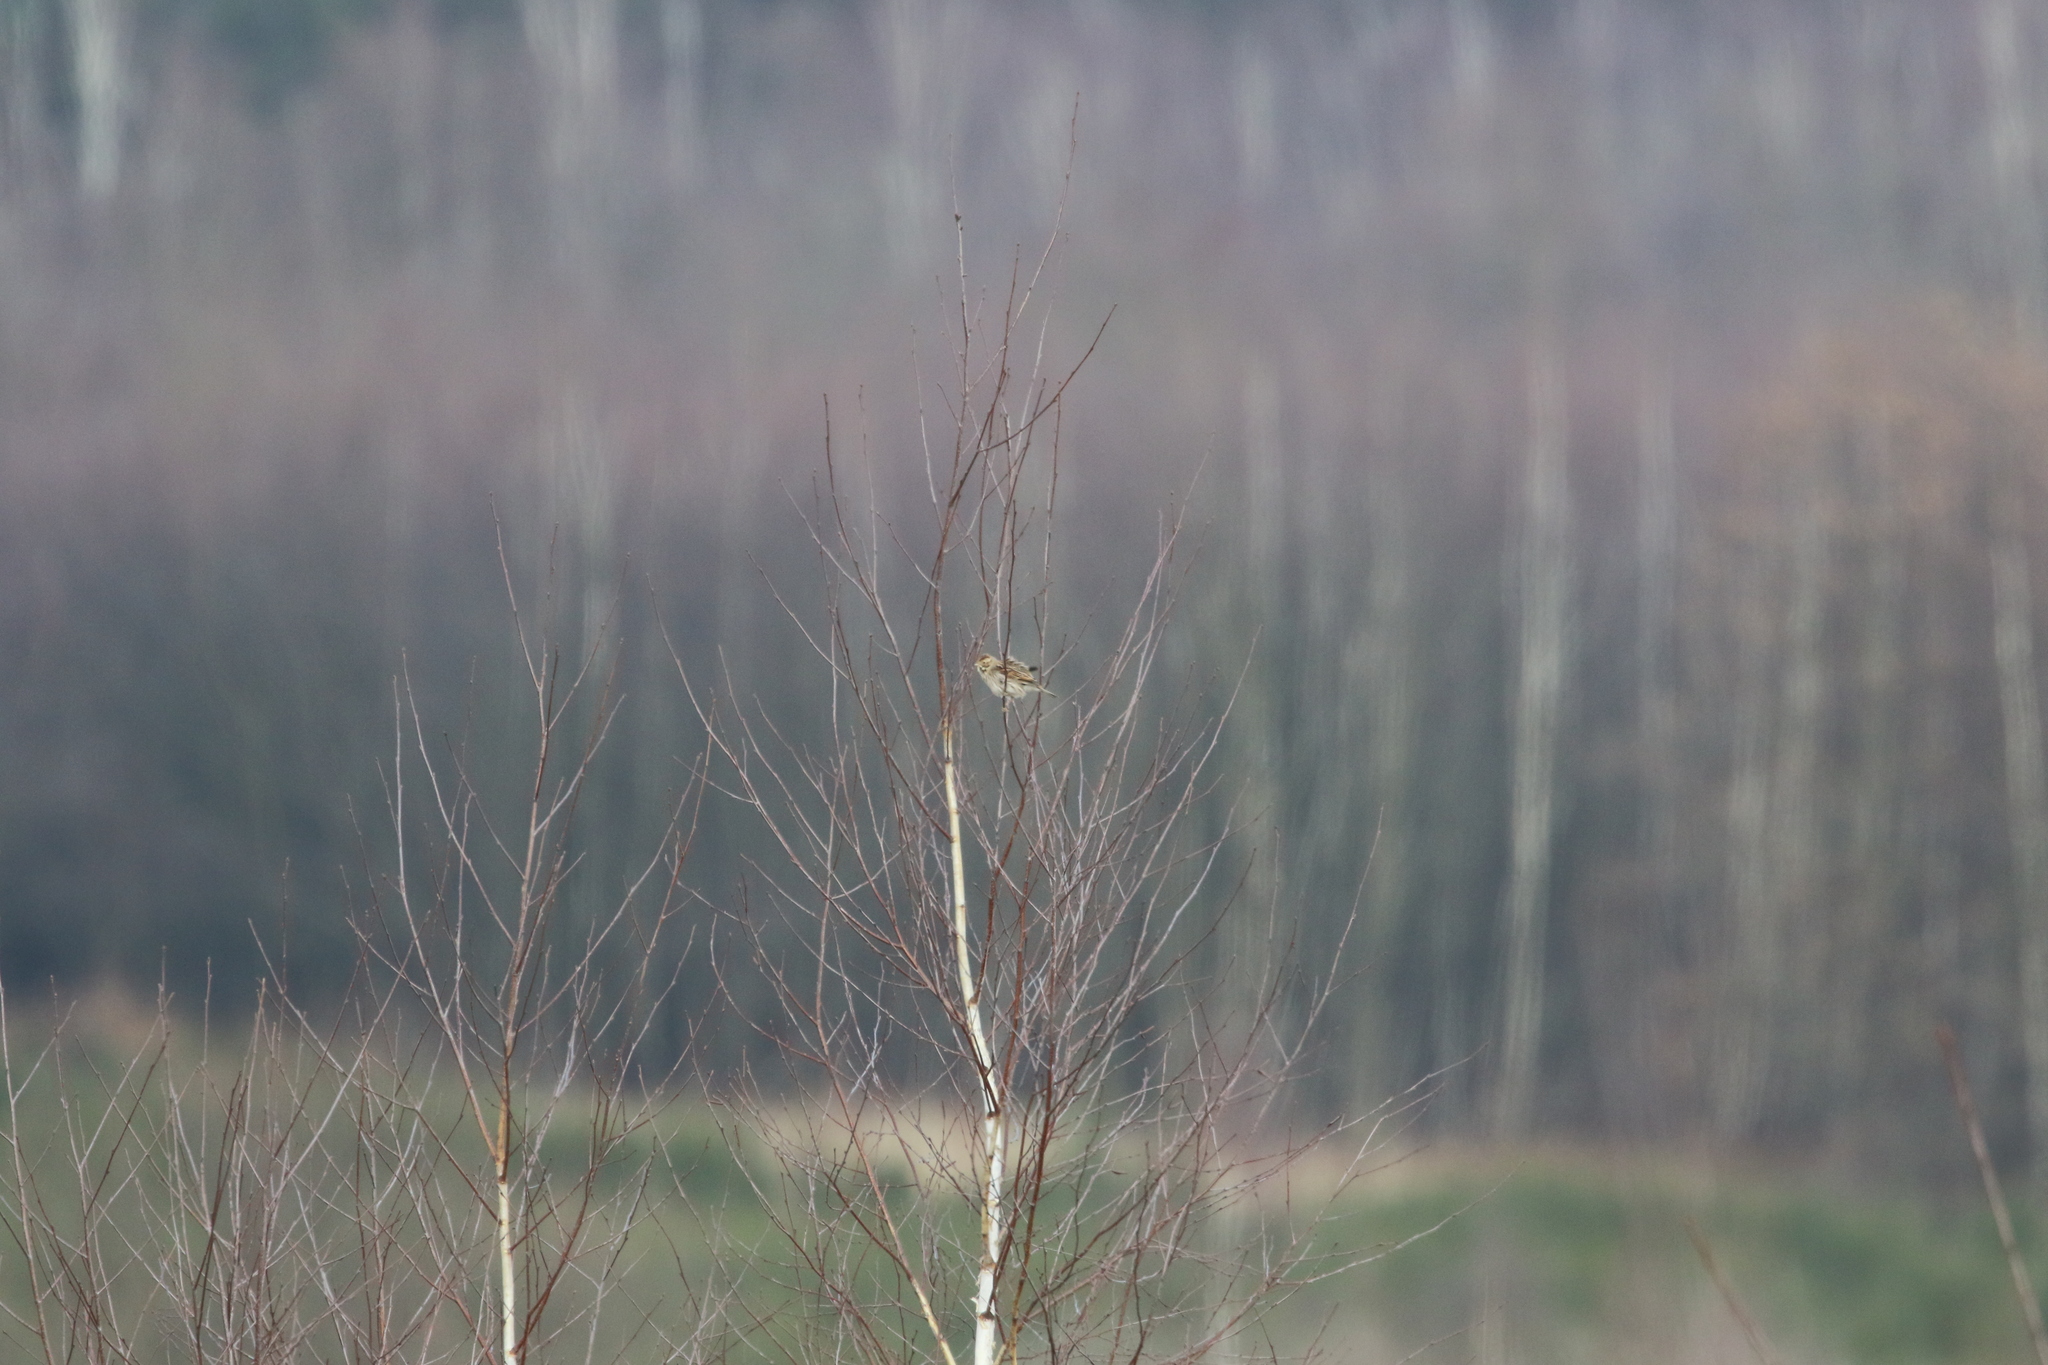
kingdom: Animalia
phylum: Chordata
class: Aves
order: Passeriformes
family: Emberizidae
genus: Emberiza
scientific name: Emberiza schoeniclus
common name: Reed bunting
